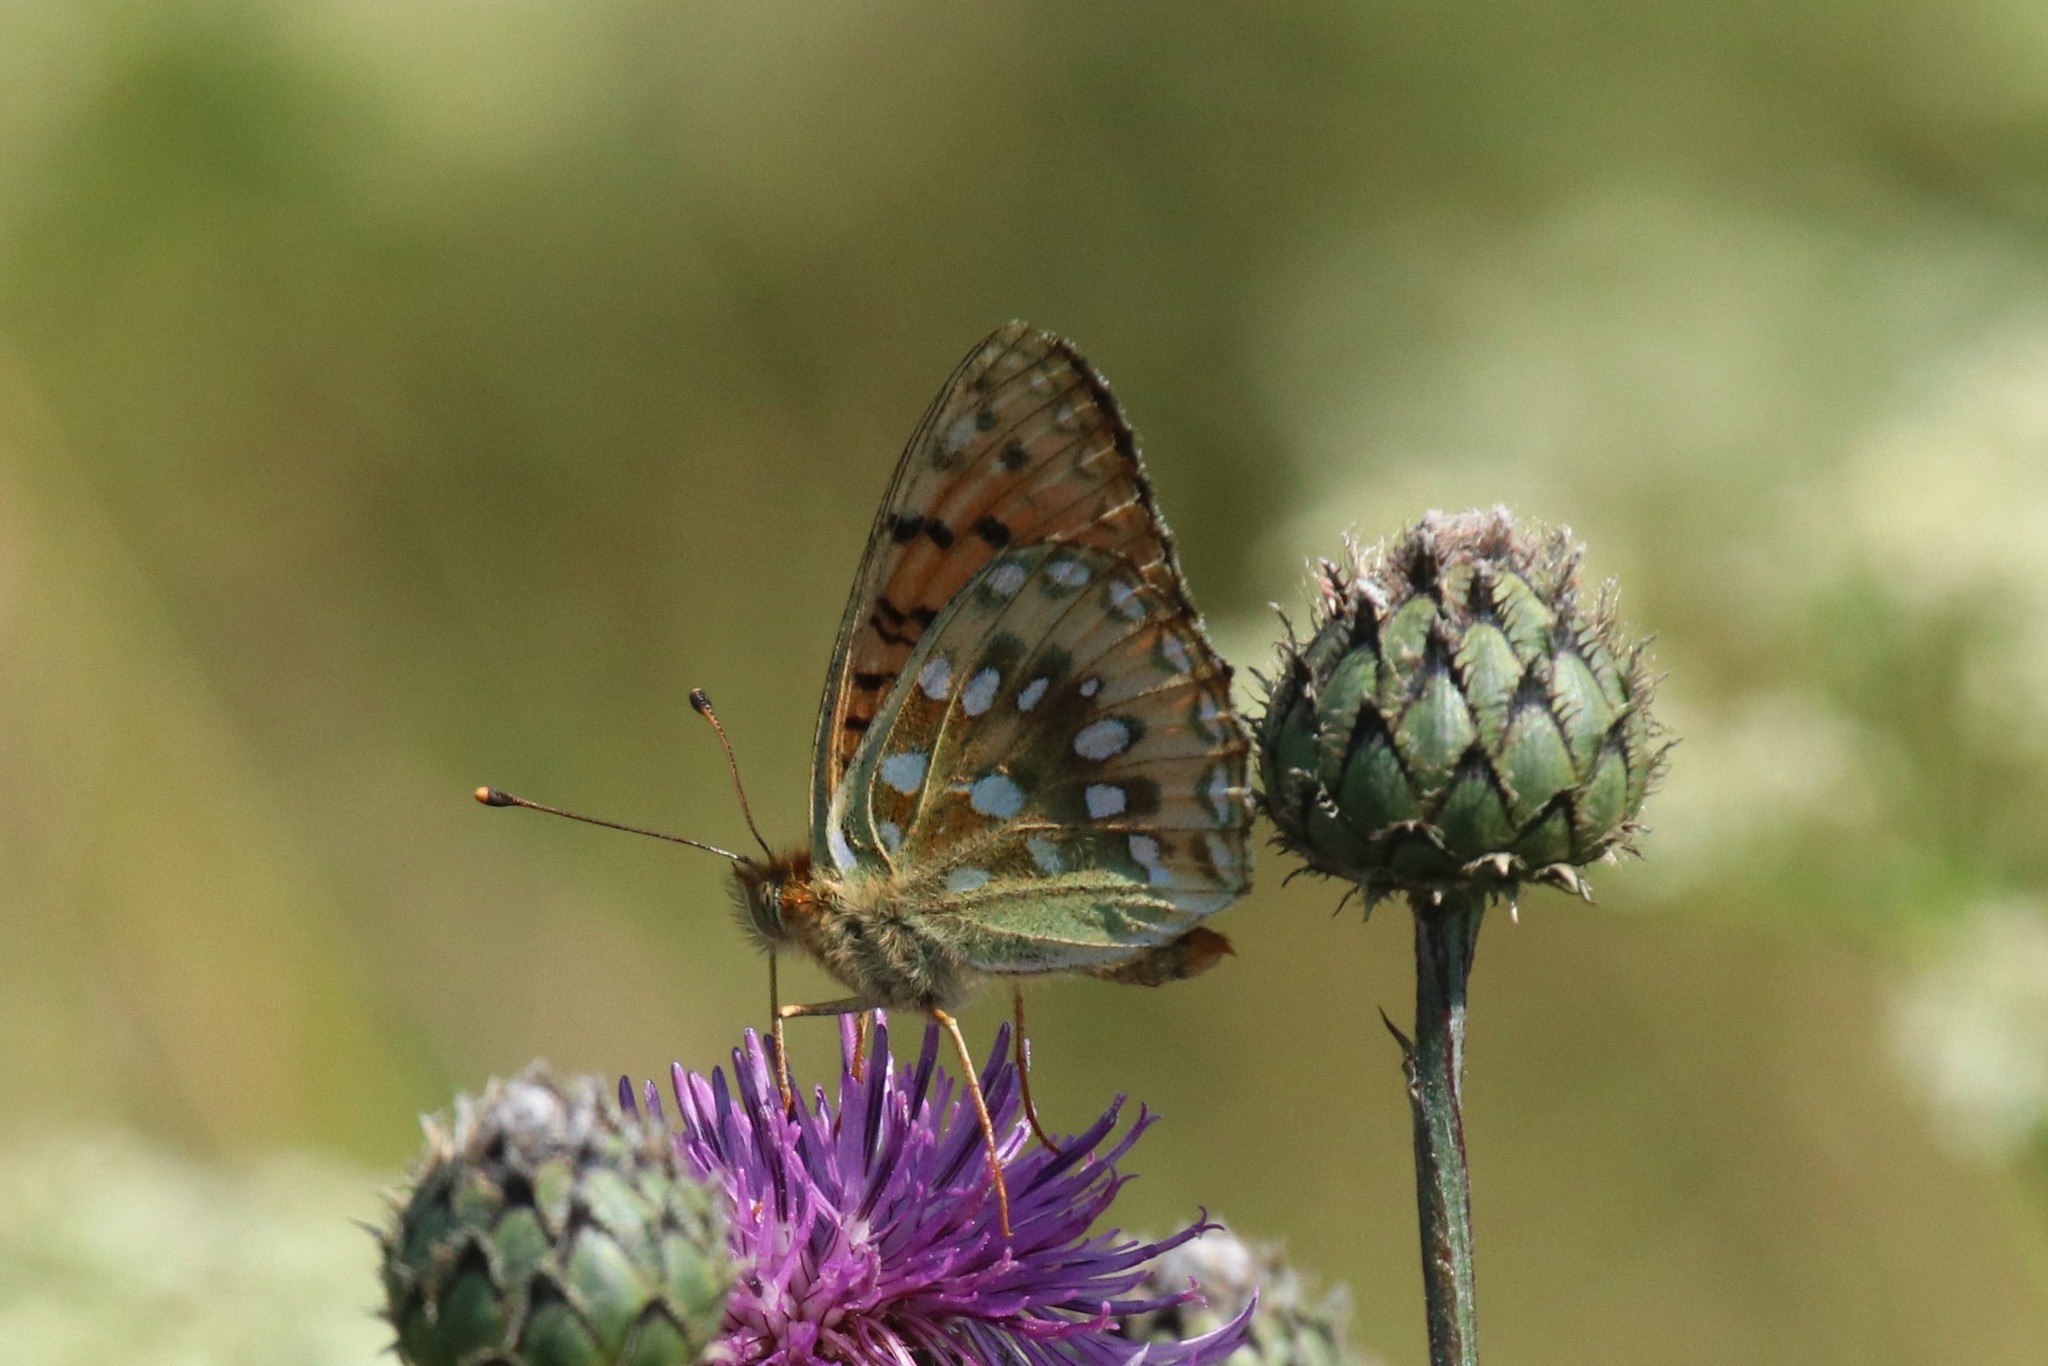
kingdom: Animalia
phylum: Arthropoda
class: Insecta
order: Lepidoptera
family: Nymphalidae
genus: Speyeria
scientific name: Speyeria aglaja
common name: Dark green fritillary
